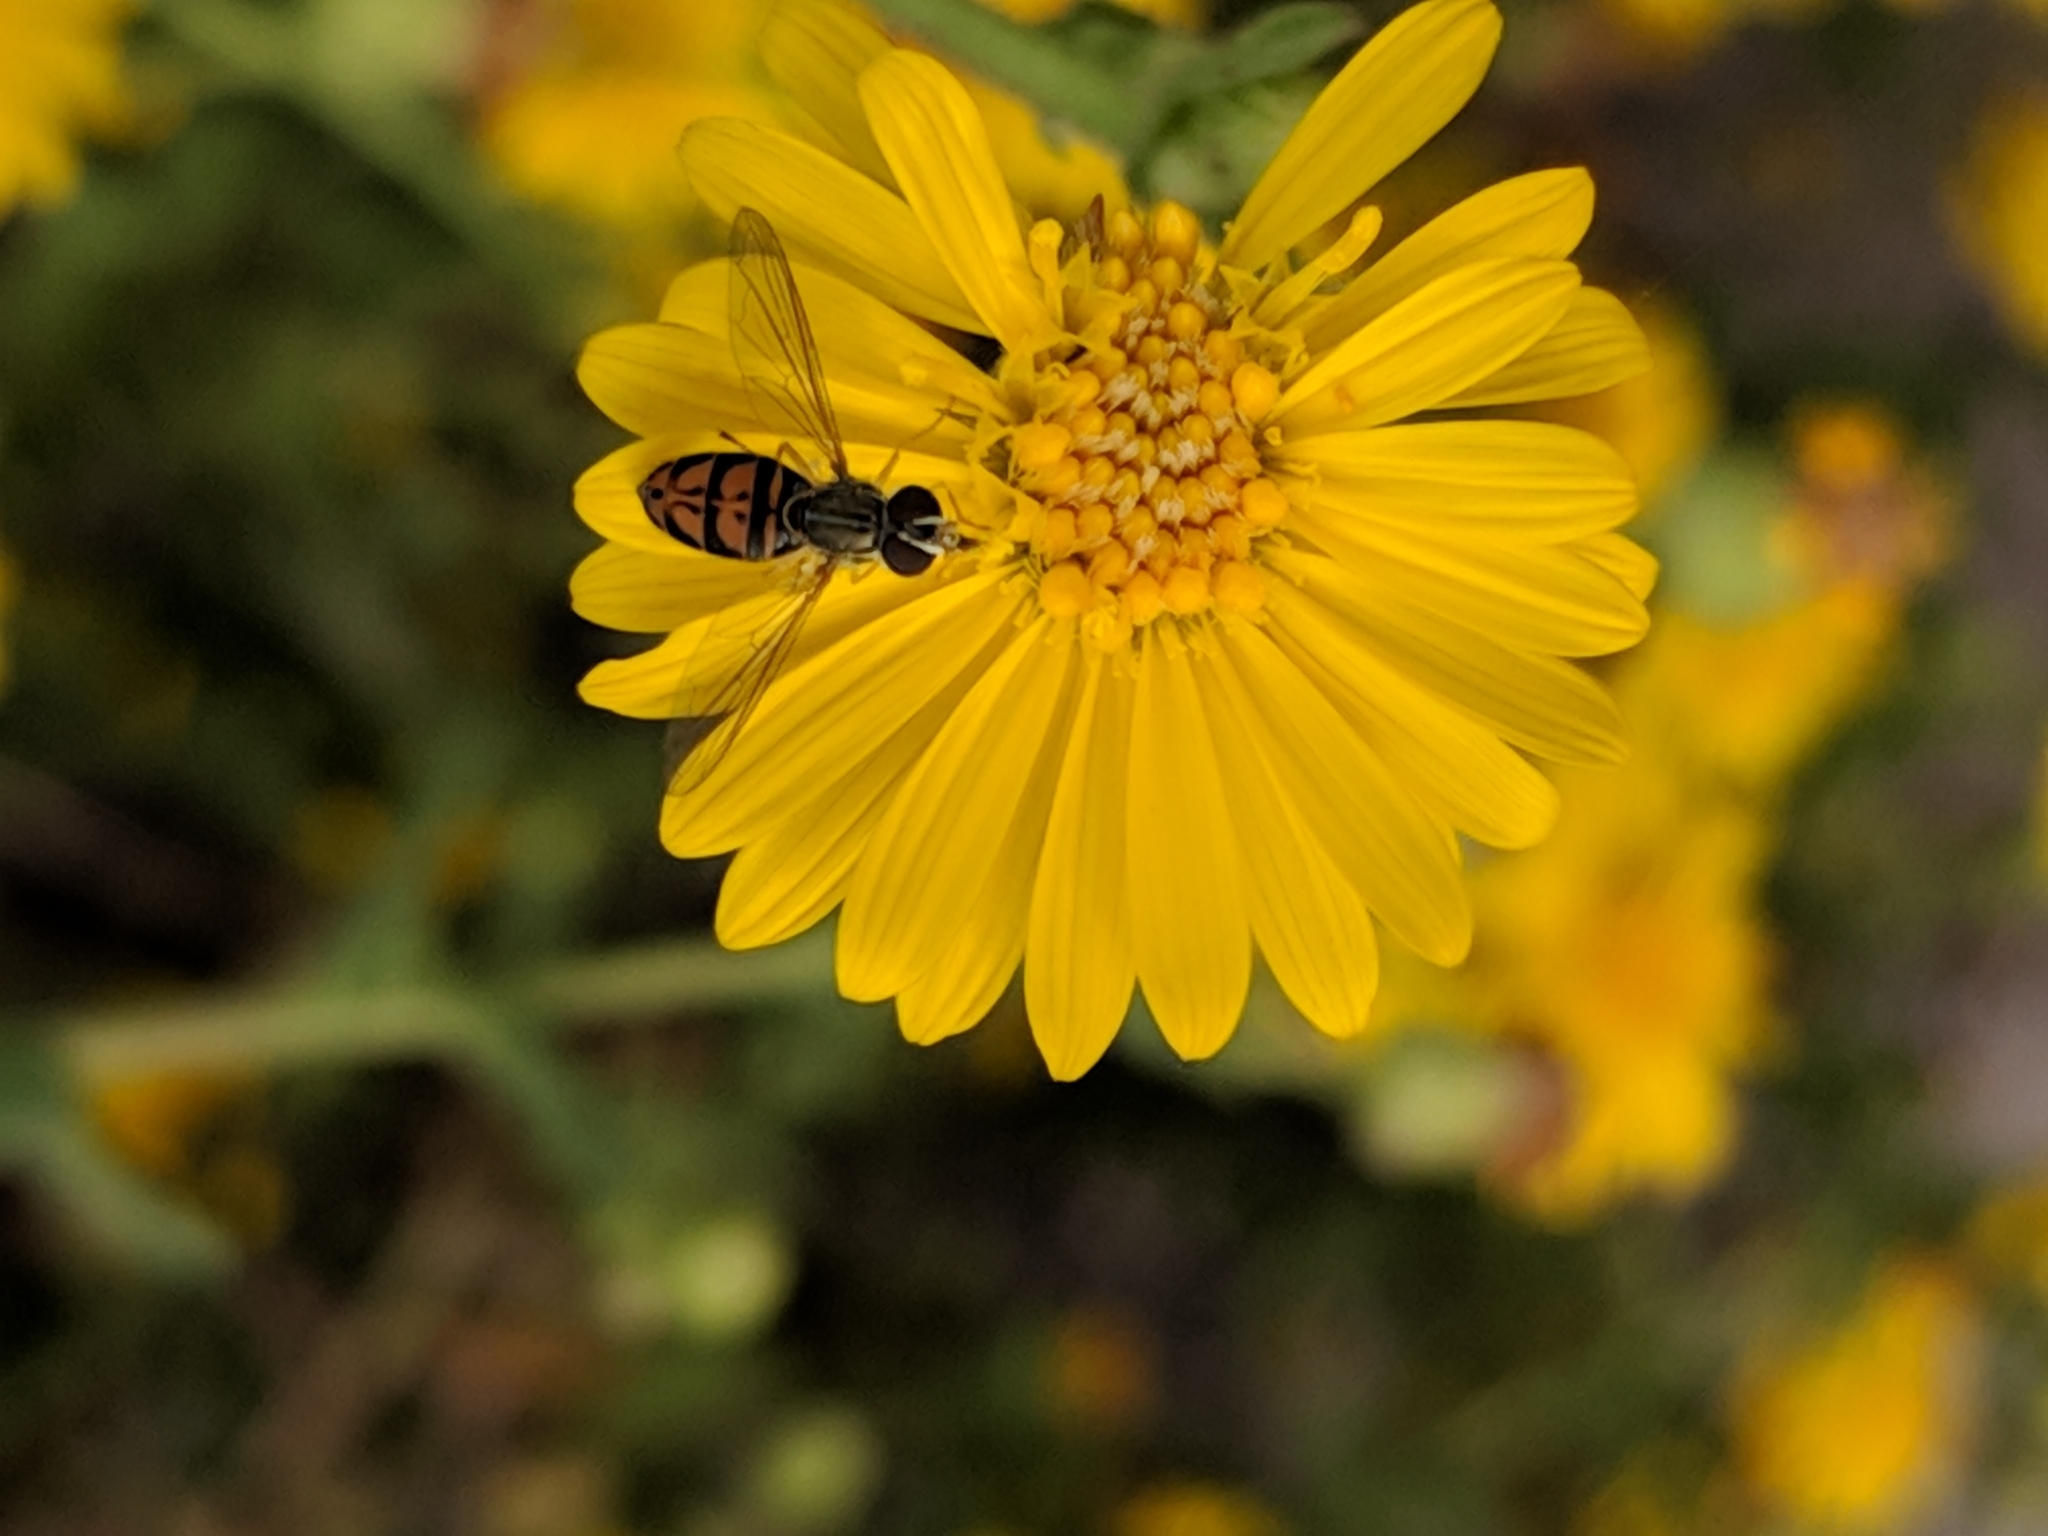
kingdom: Animalia
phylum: Arthropoda
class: Insecta
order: Diptera
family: Syrphidae
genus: Toxomerus
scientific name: Toxomerus marginatus
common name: Syrphid fly
